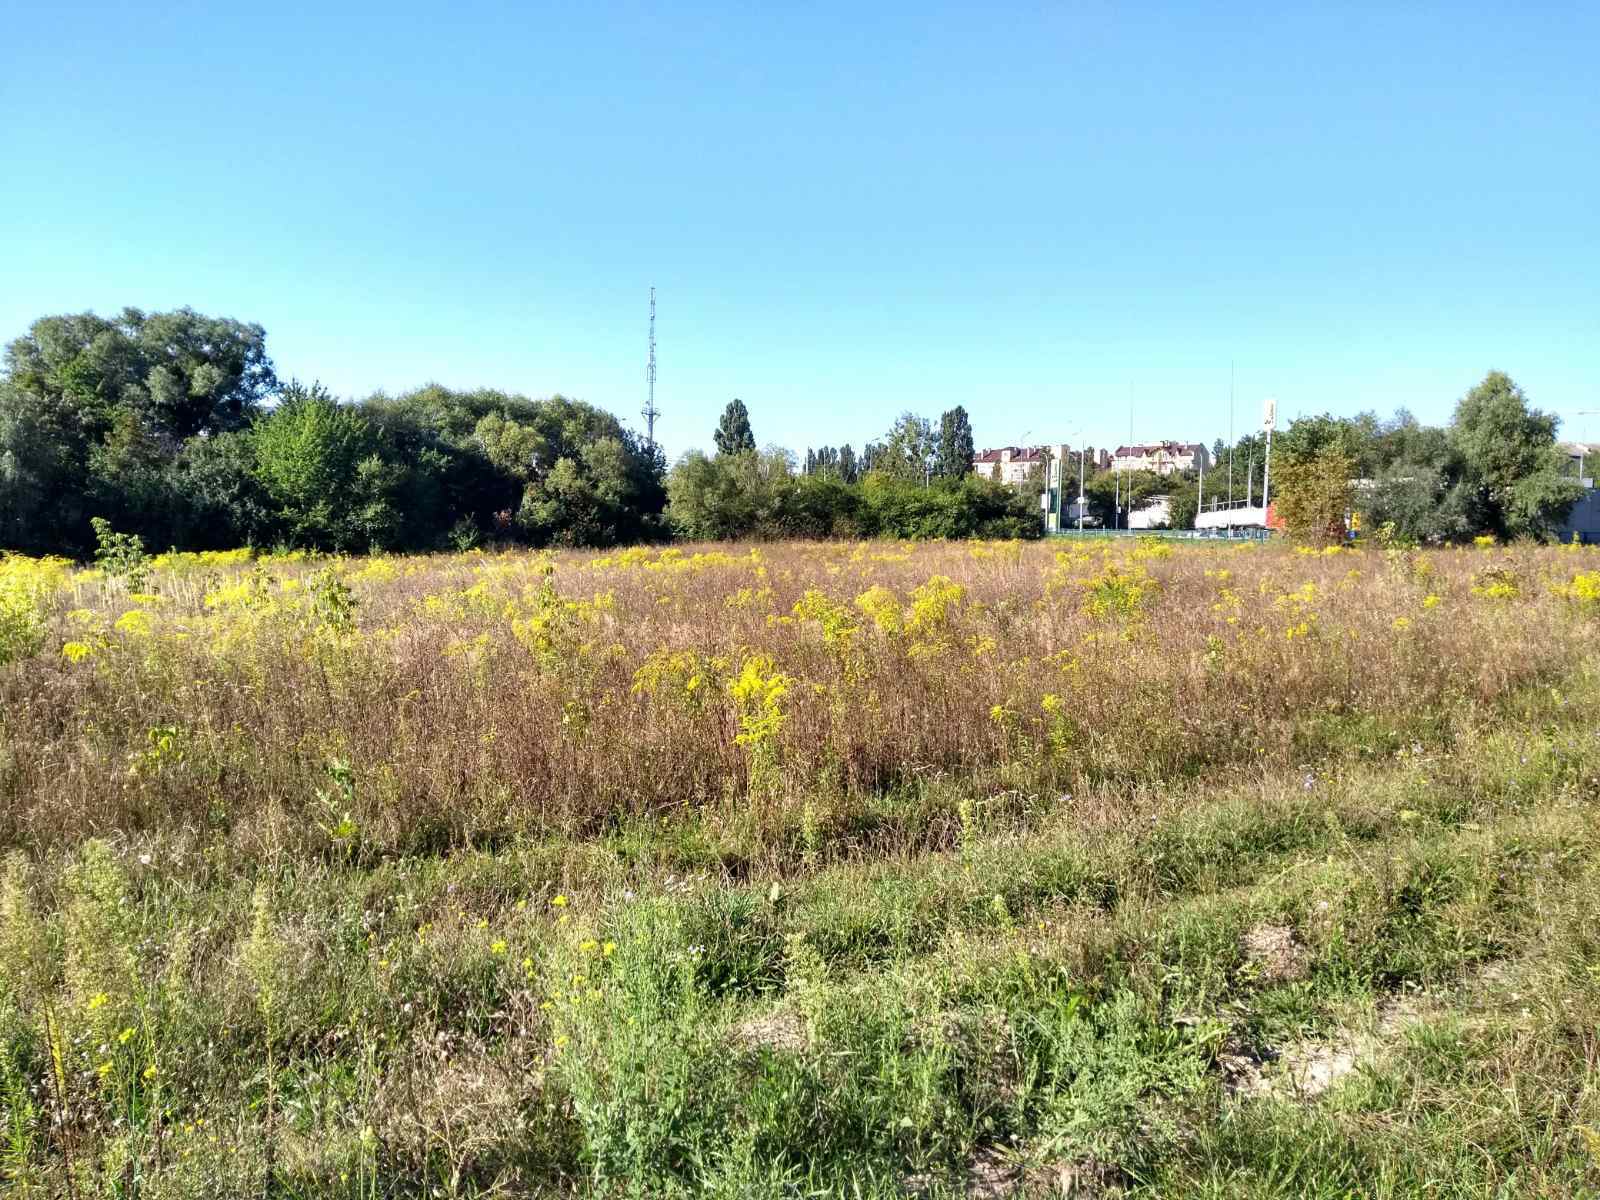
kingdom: Plantae
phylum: Tracheophyta
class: Magnoliopsida
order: Asterales
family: Asteraceae
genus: Solidago
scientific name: Solidago canadensis
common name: Canada goldenrod
